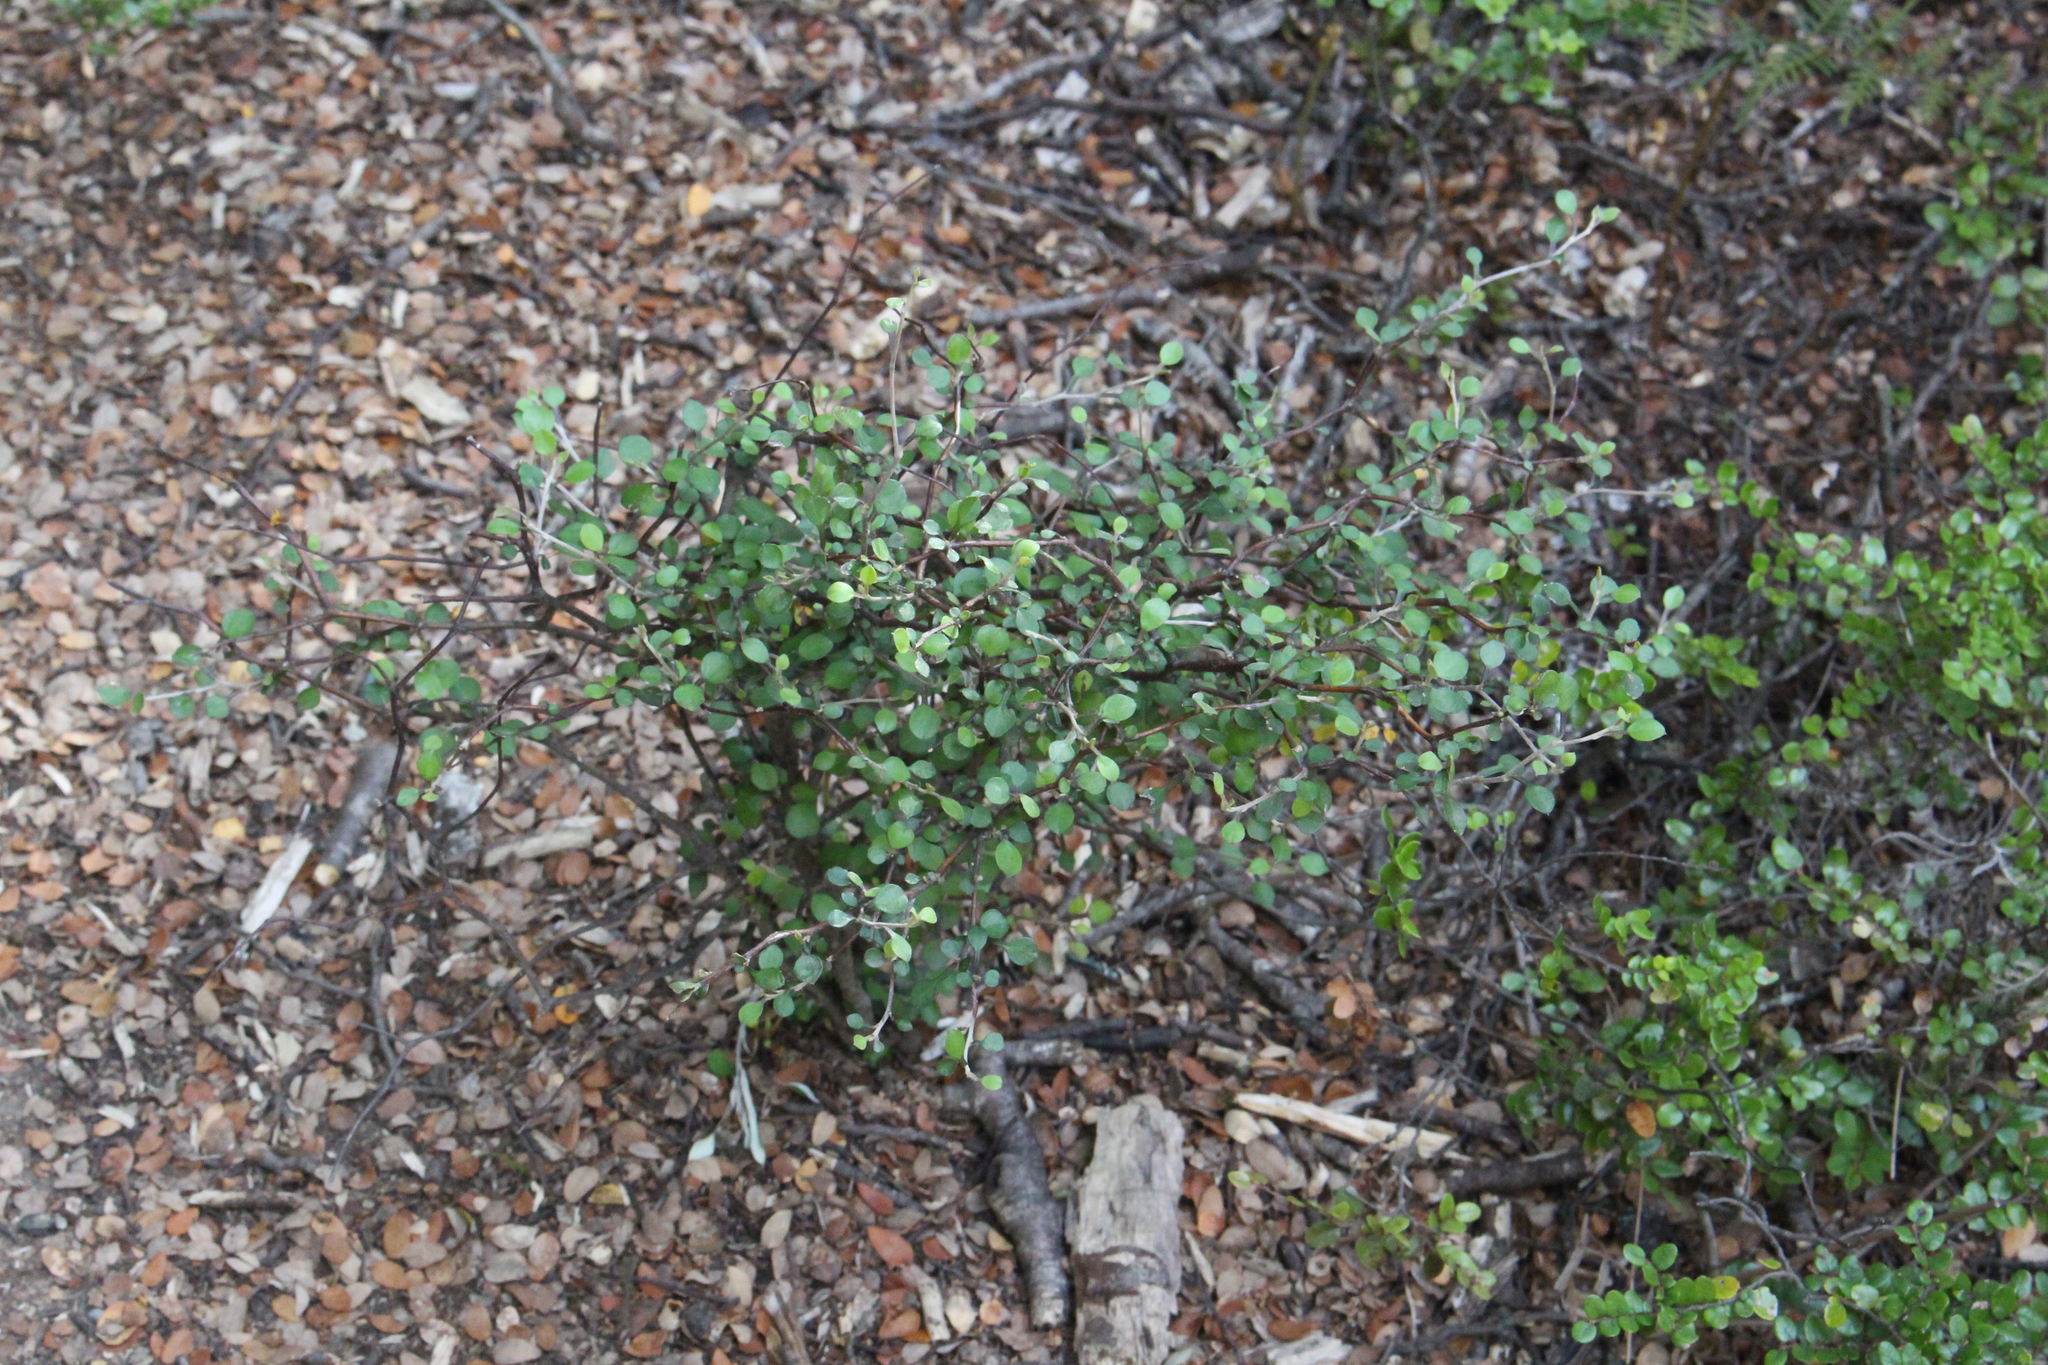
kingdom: Plantae
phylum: Tracheophyta
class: Magnoliopsida
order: Asterales
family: Argophyllaceae
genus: Corokia
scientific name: Corokia cotoneaster
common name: Wire nettingbush
